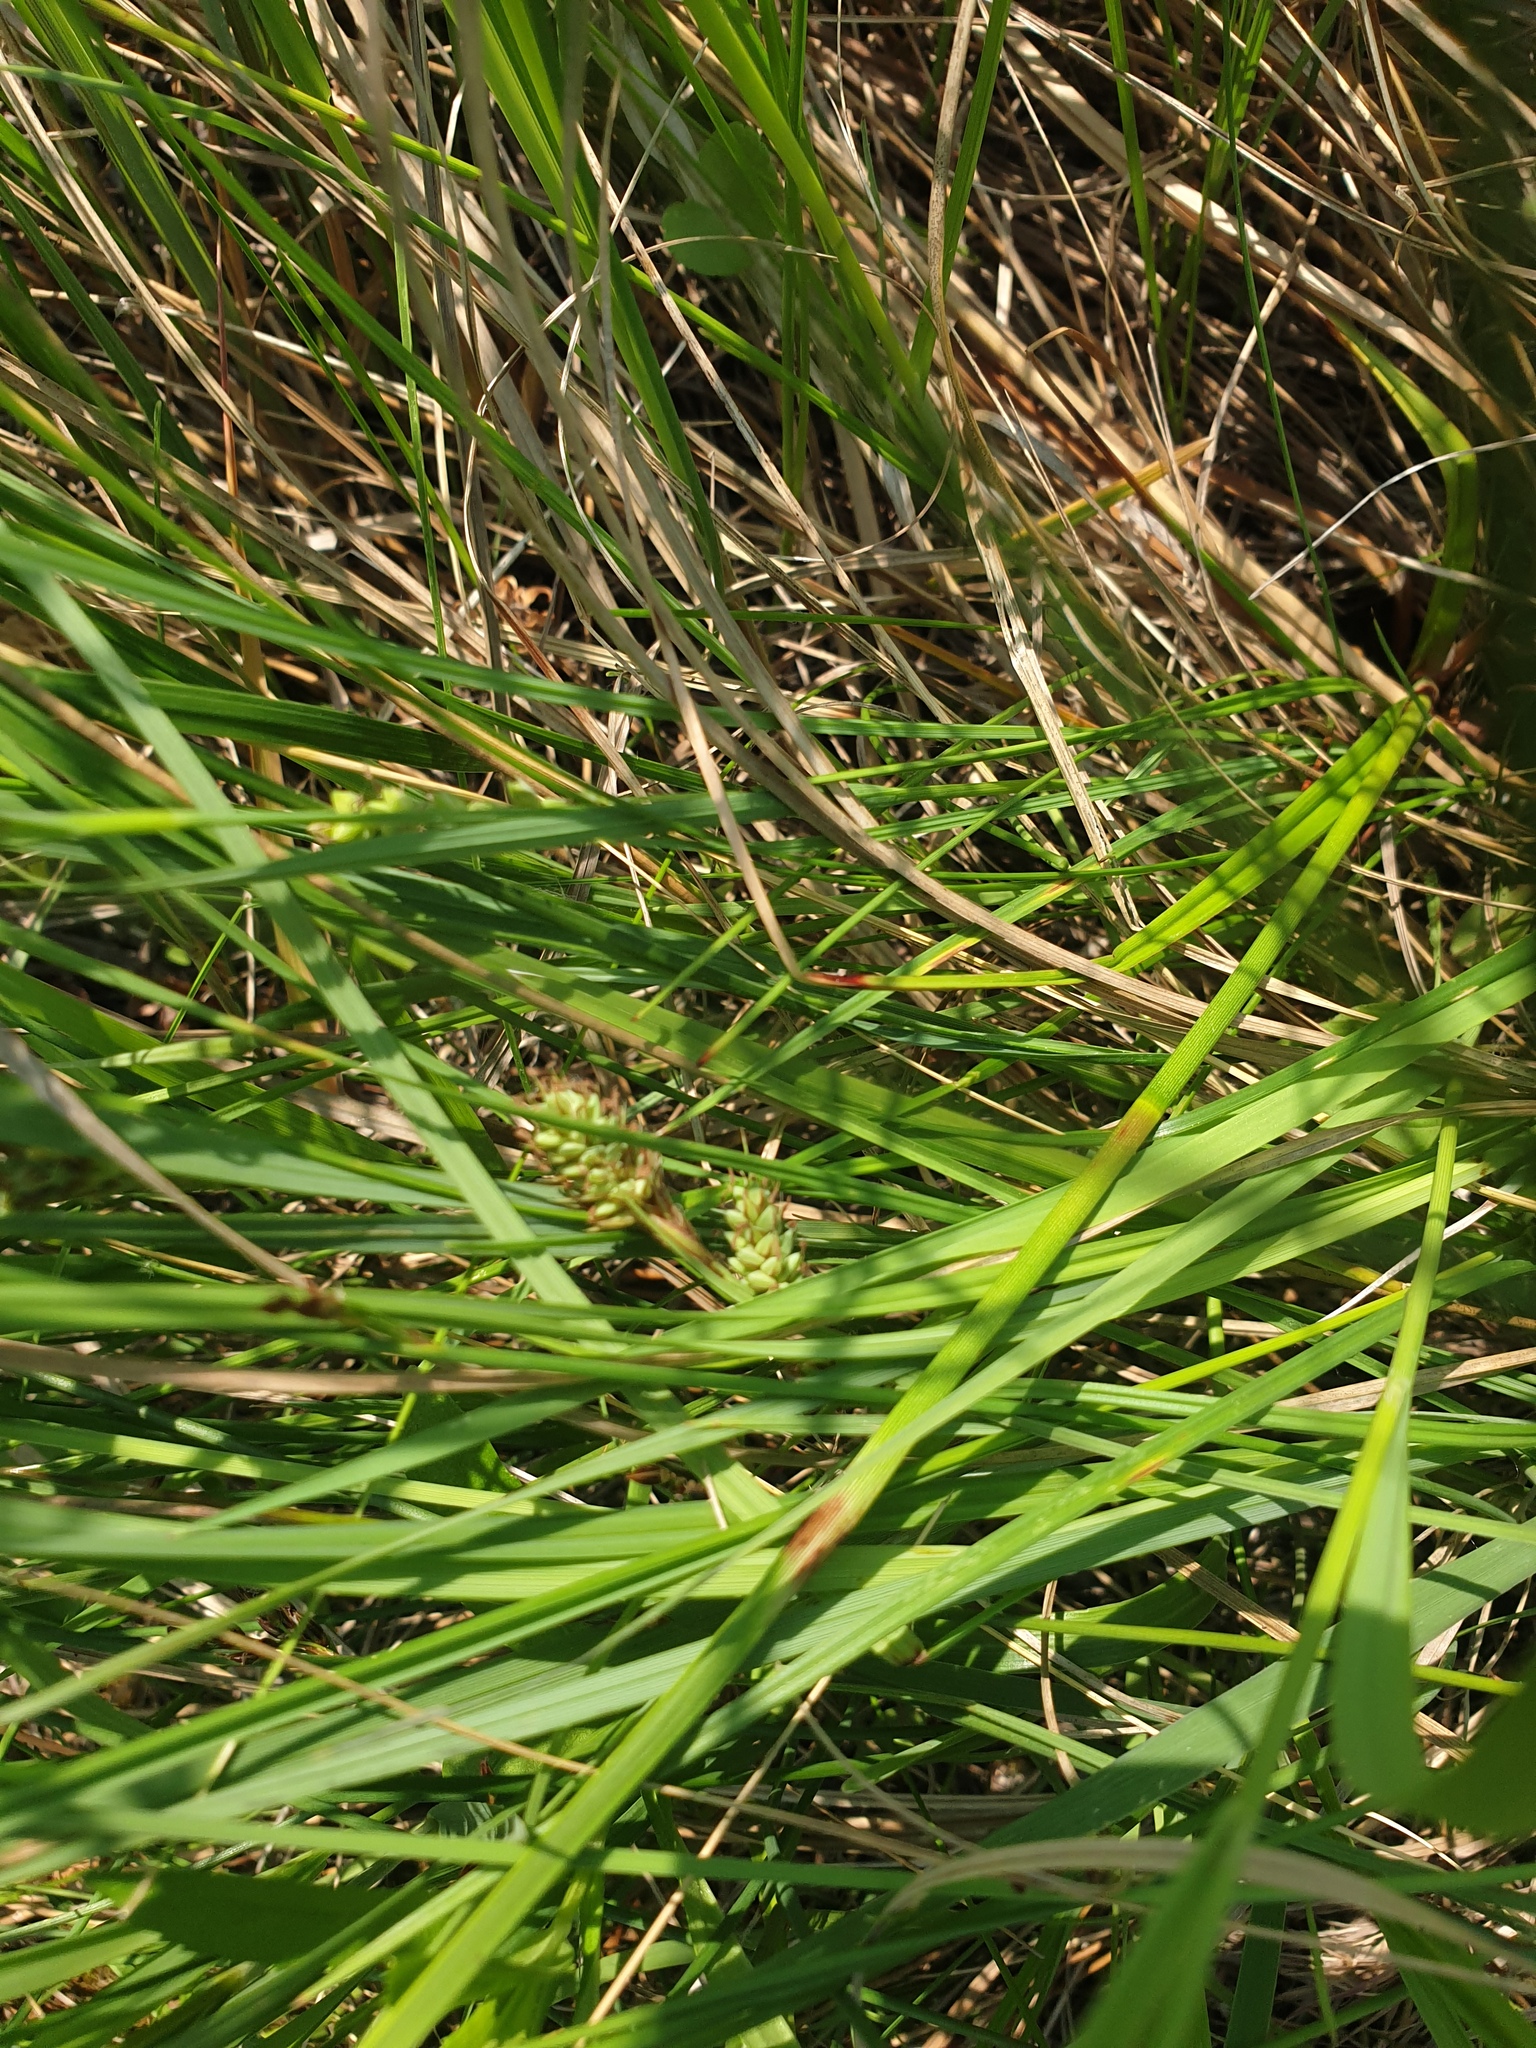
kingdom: Plantae
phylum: Tracheophyta
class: Liliopsida
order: Poales
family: Cyperaceae
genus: Eriophorum
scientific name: Eriophorum angustifolium
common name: Common cottongrass
